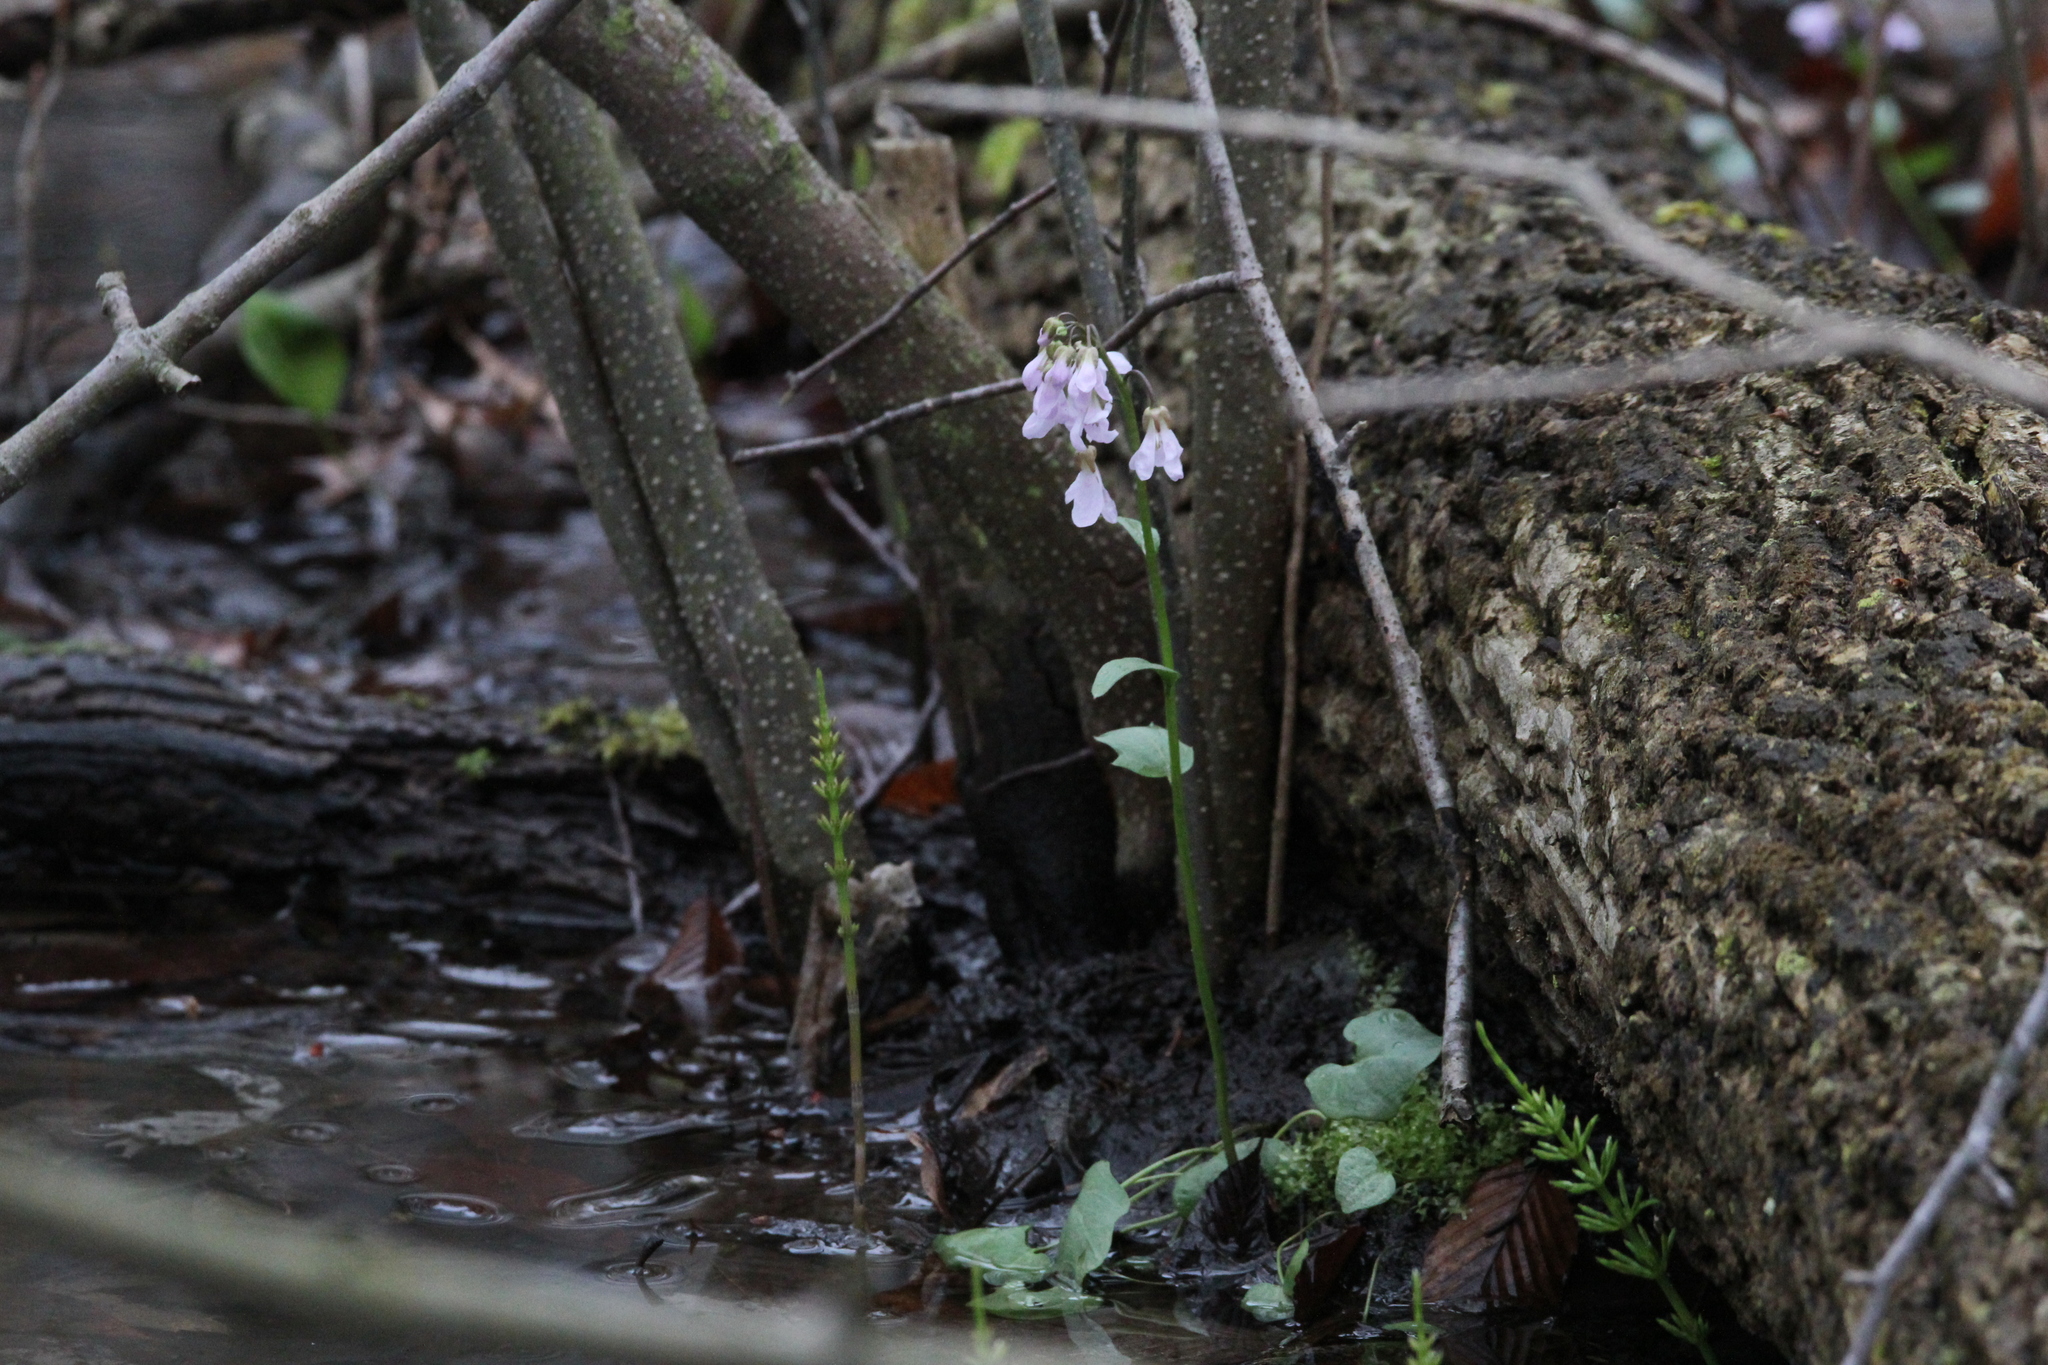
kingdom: Plantae
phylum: Tracheophyta
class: Magnoliopsida
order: Brassicales
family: Brassicaceae
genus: Cardamine
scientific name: Cardamine douglassii
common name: Purple cress
